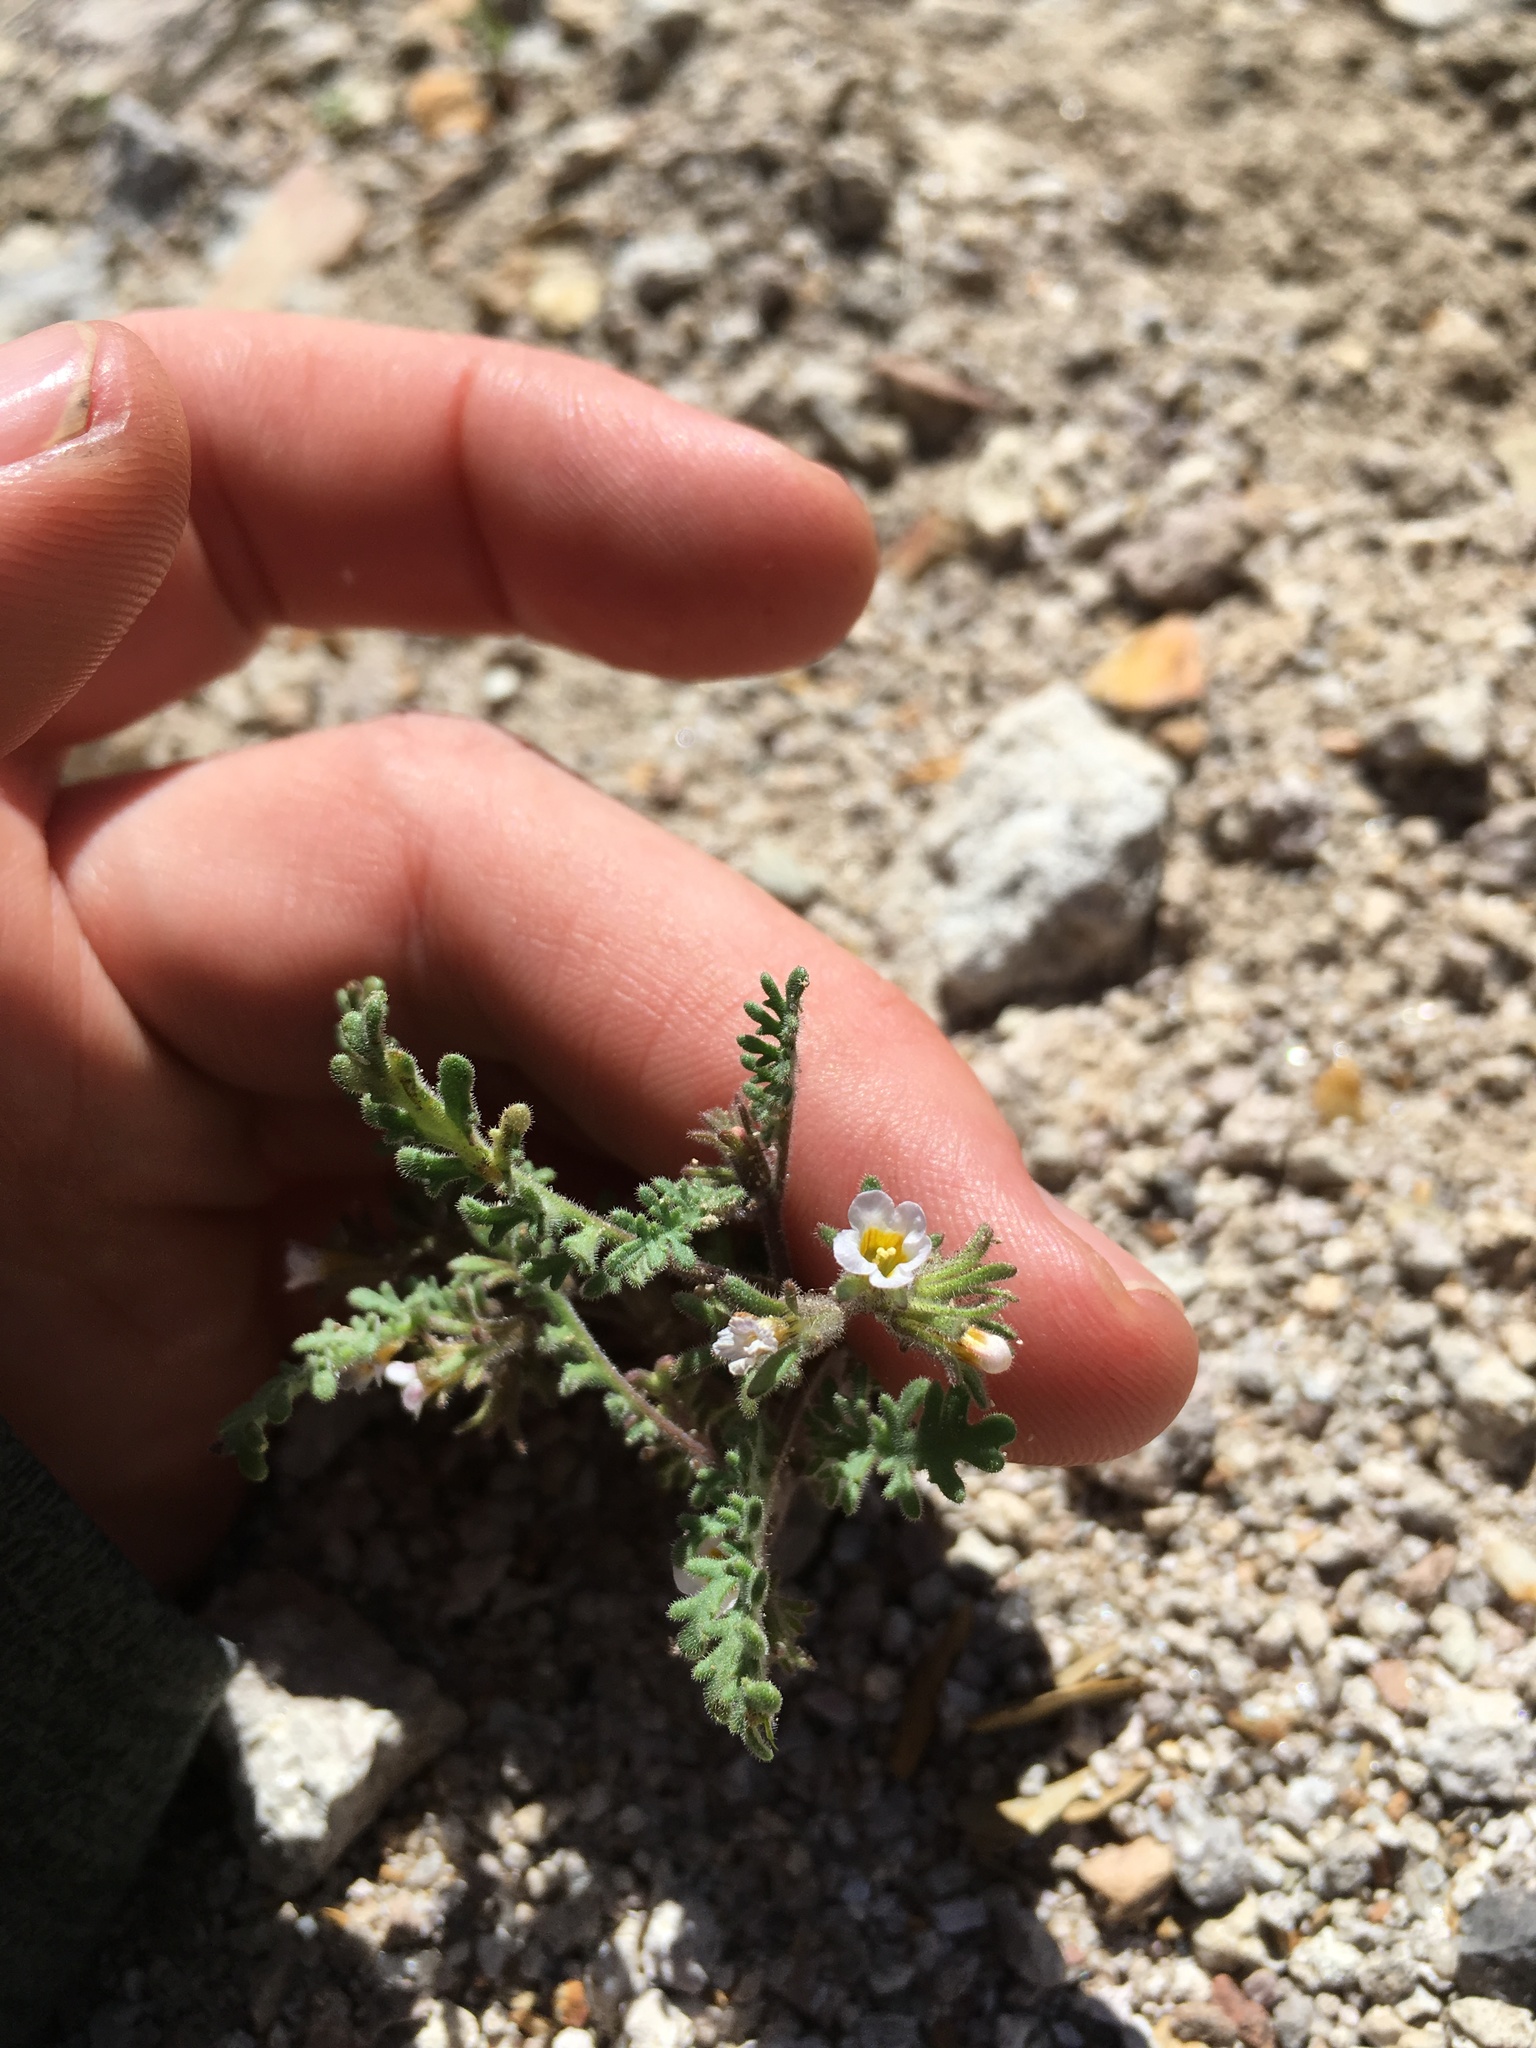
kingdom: Plantae
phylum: Tracheophyta
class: Magnoliopsida
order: Boraginales
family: Hydrophyllaceae
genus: Phacelia
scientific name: Phacelia glandulifera
